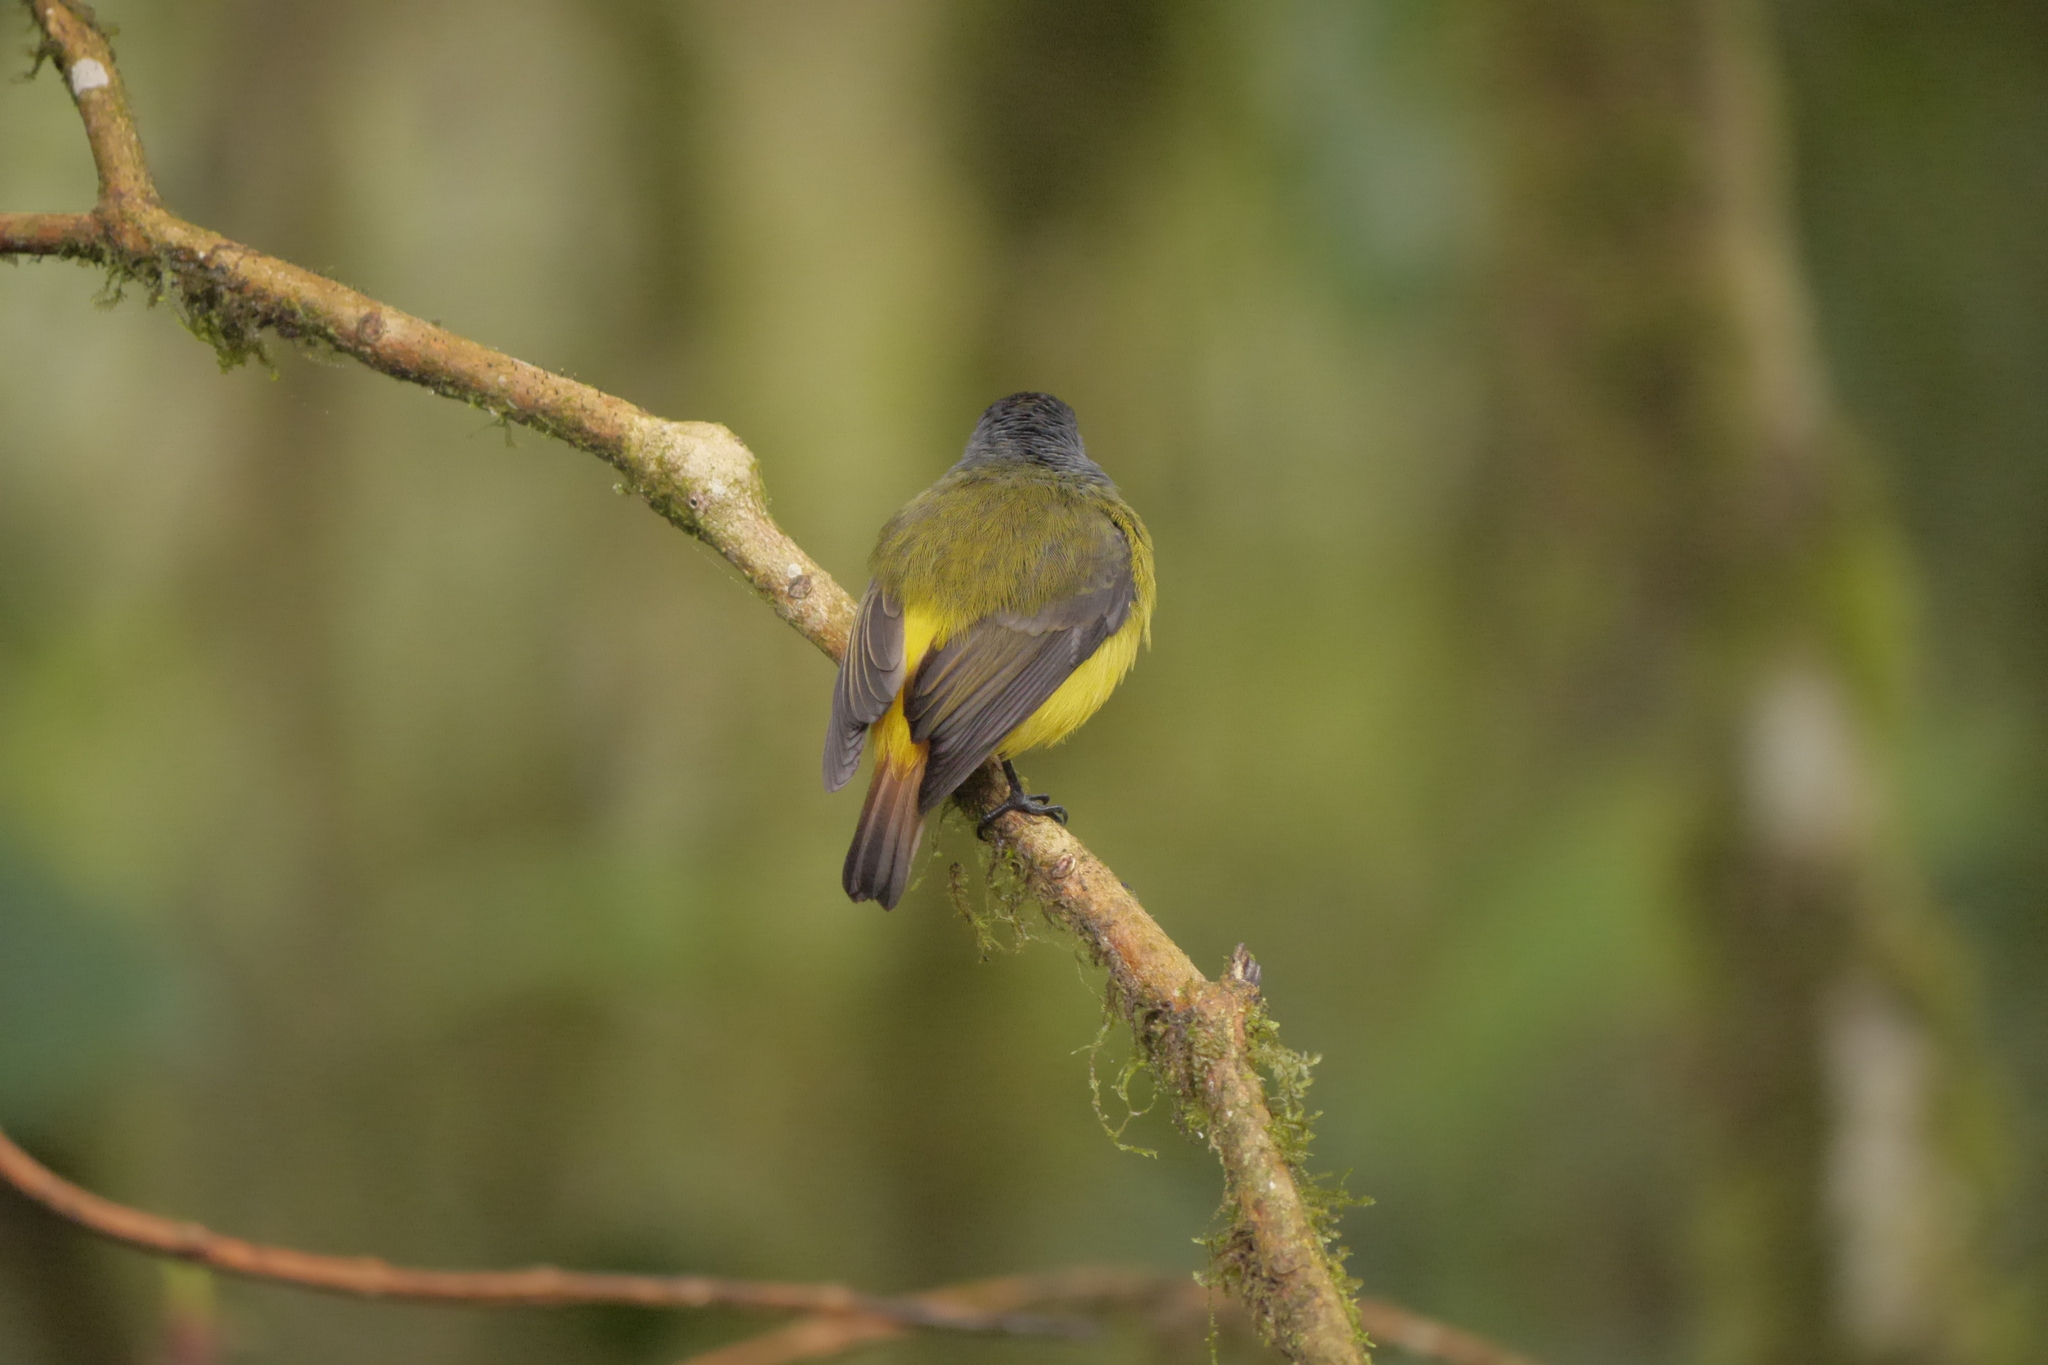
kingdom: Animalia
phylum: Chordata
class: Aves
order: Passeriformes
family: Tyrannidae
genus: Myiotriccus
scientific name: Myiotriccus ornatus
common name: Ornate flycatcher
